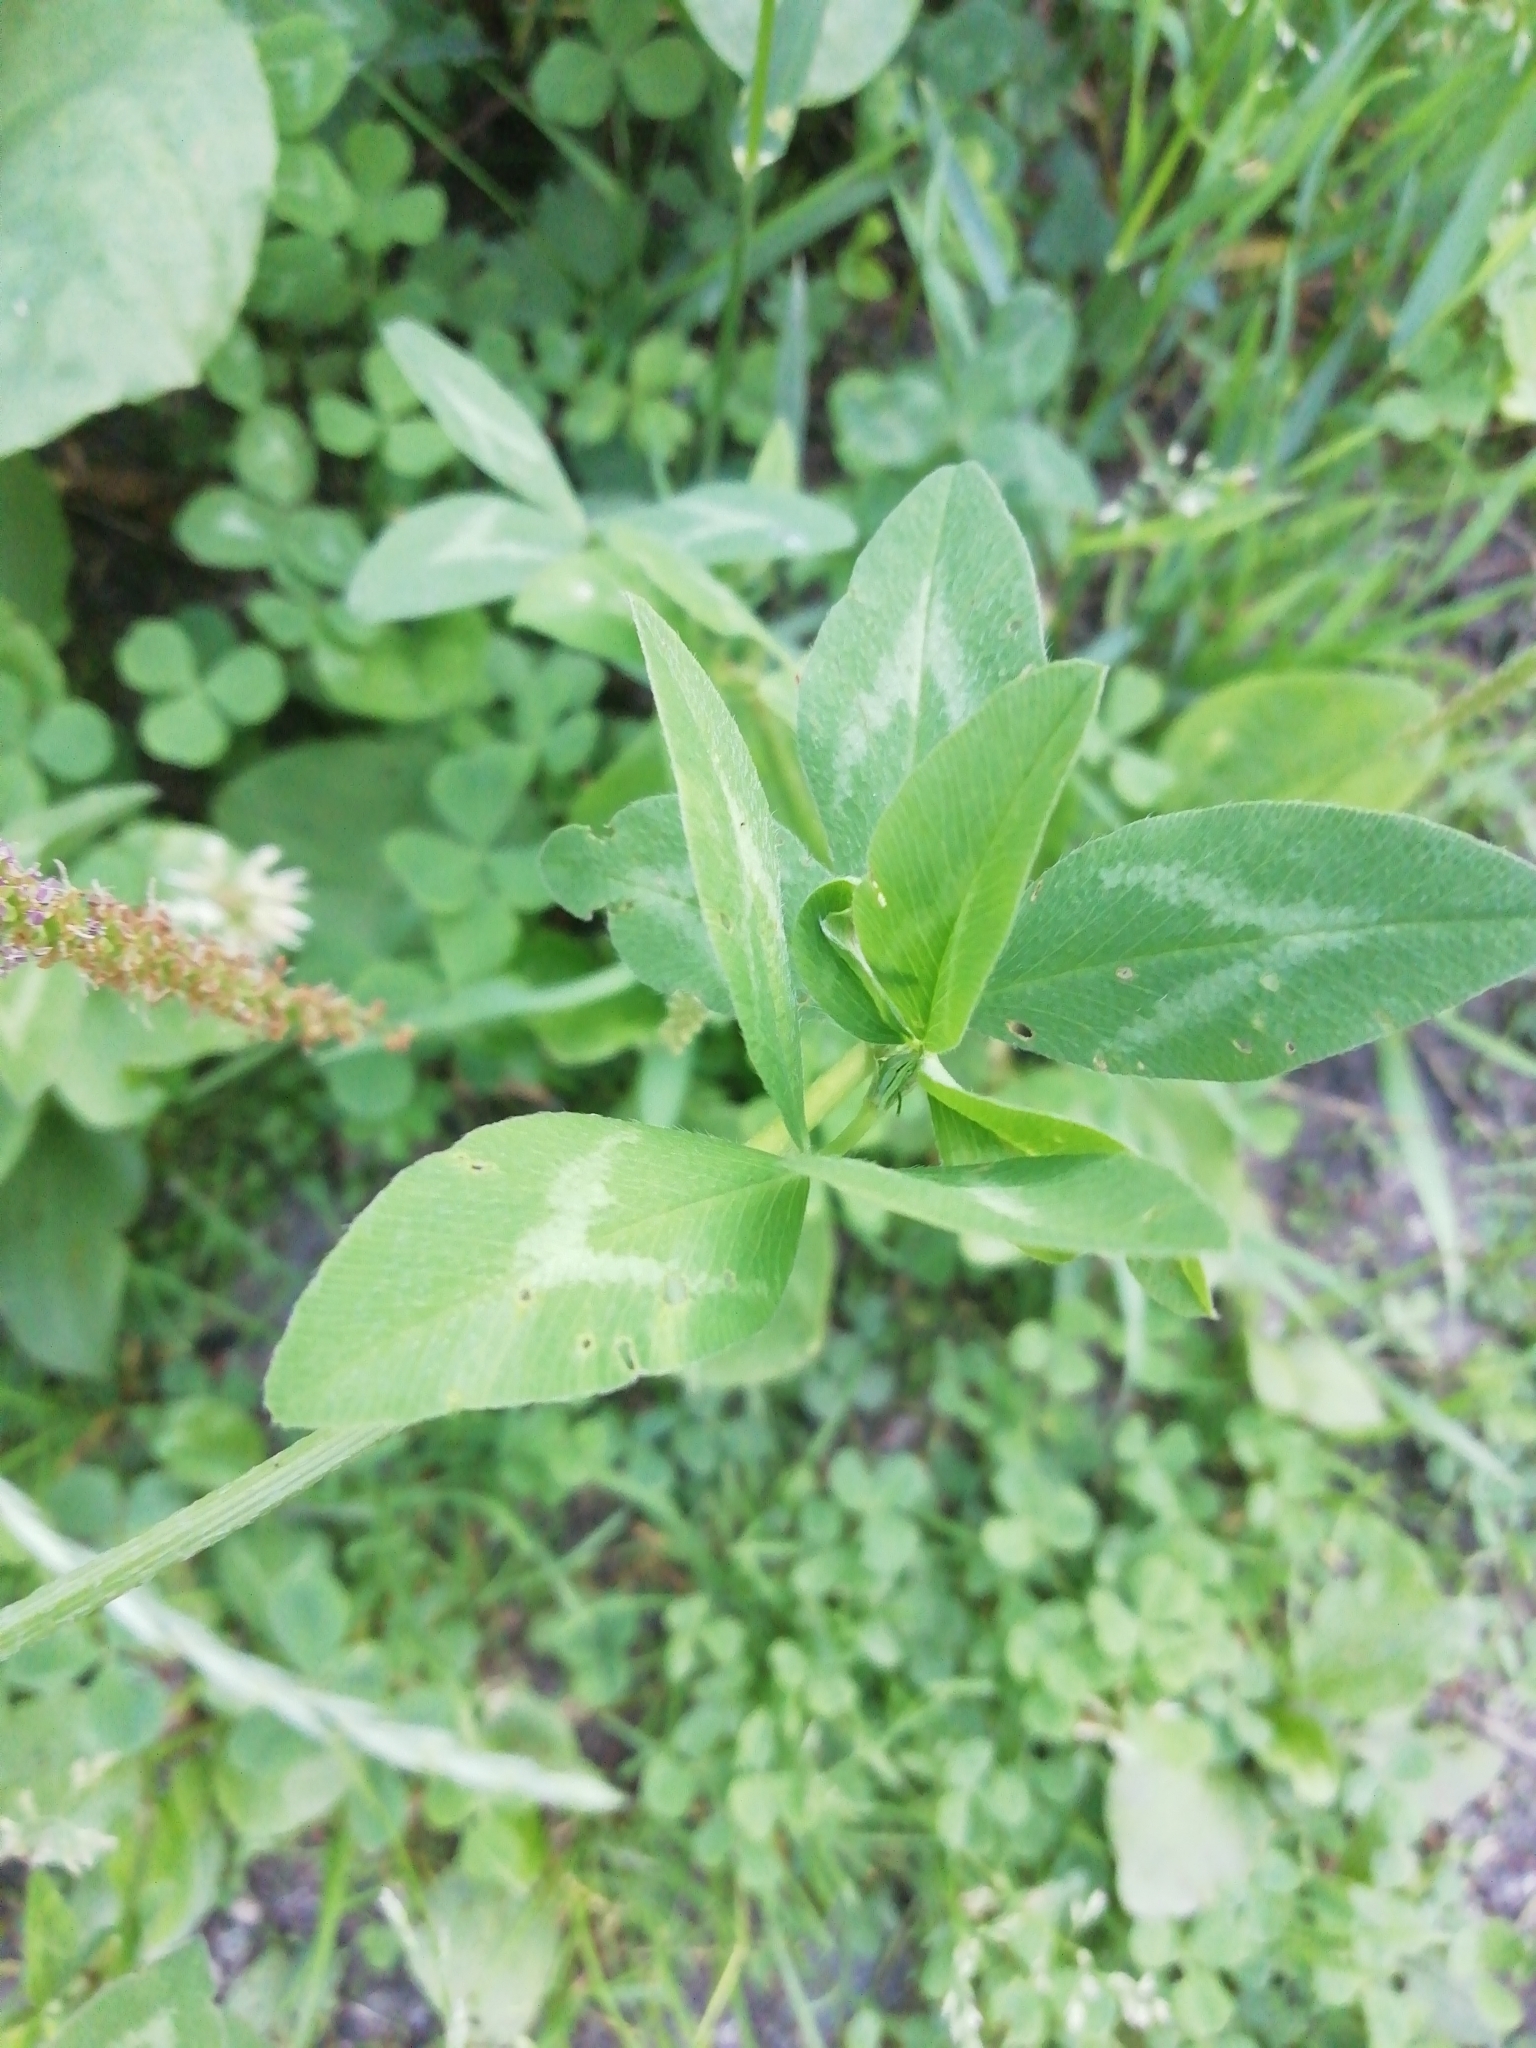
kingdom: Plantae
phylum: Tracheophyta
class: Magnoliopsida
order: Fabales
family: Fabaceae
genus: Trifolium
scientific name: Trifolium pratense
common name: Red clover
